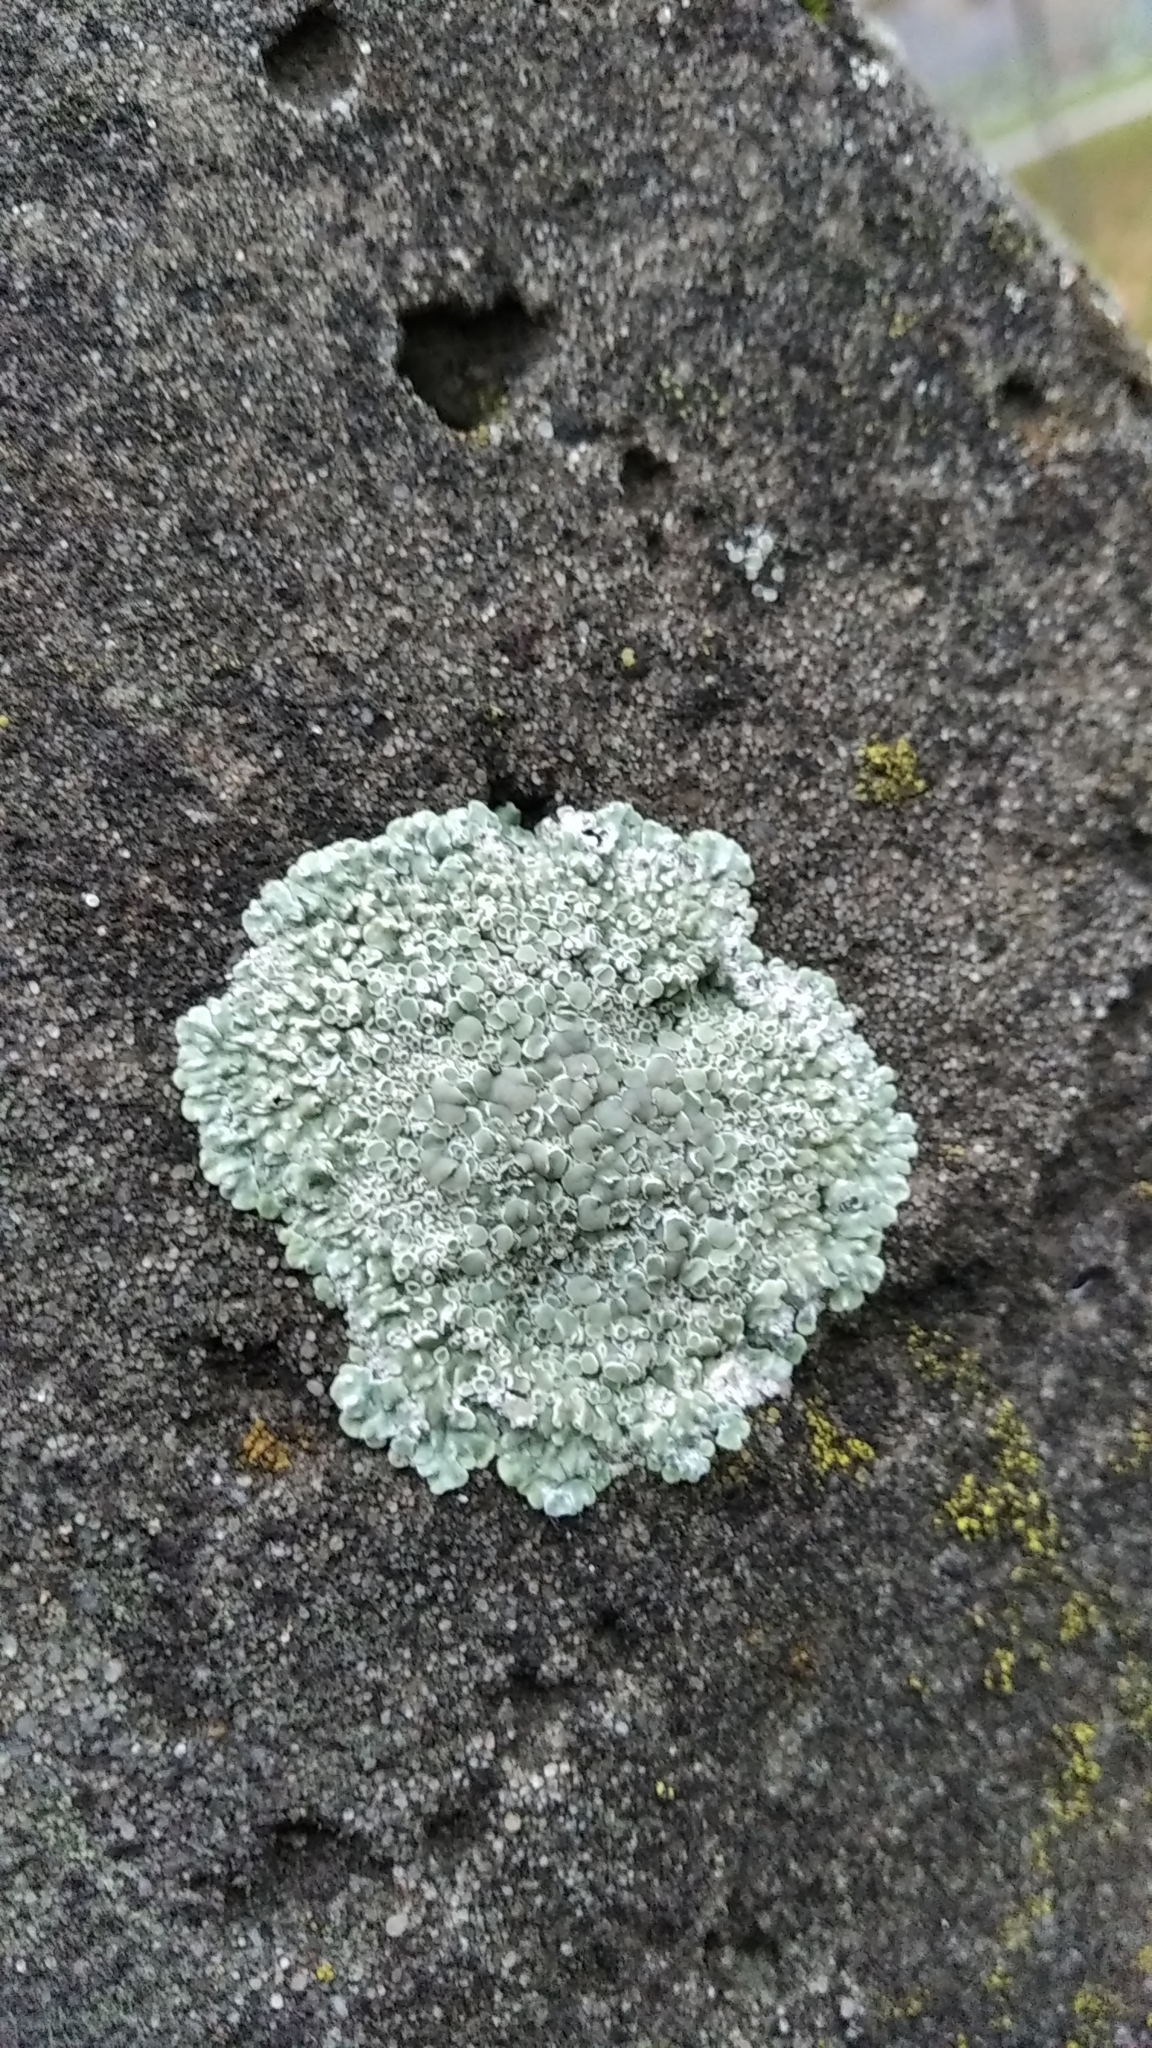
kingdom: Fungi
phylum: Ascomycota
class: Lecanoromycetes
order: Lecanorales
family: Lecanoraceae
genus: Protoparmeliopsis
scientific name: Protoparmeliopsis muralis
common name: Stonewall rim lichen
